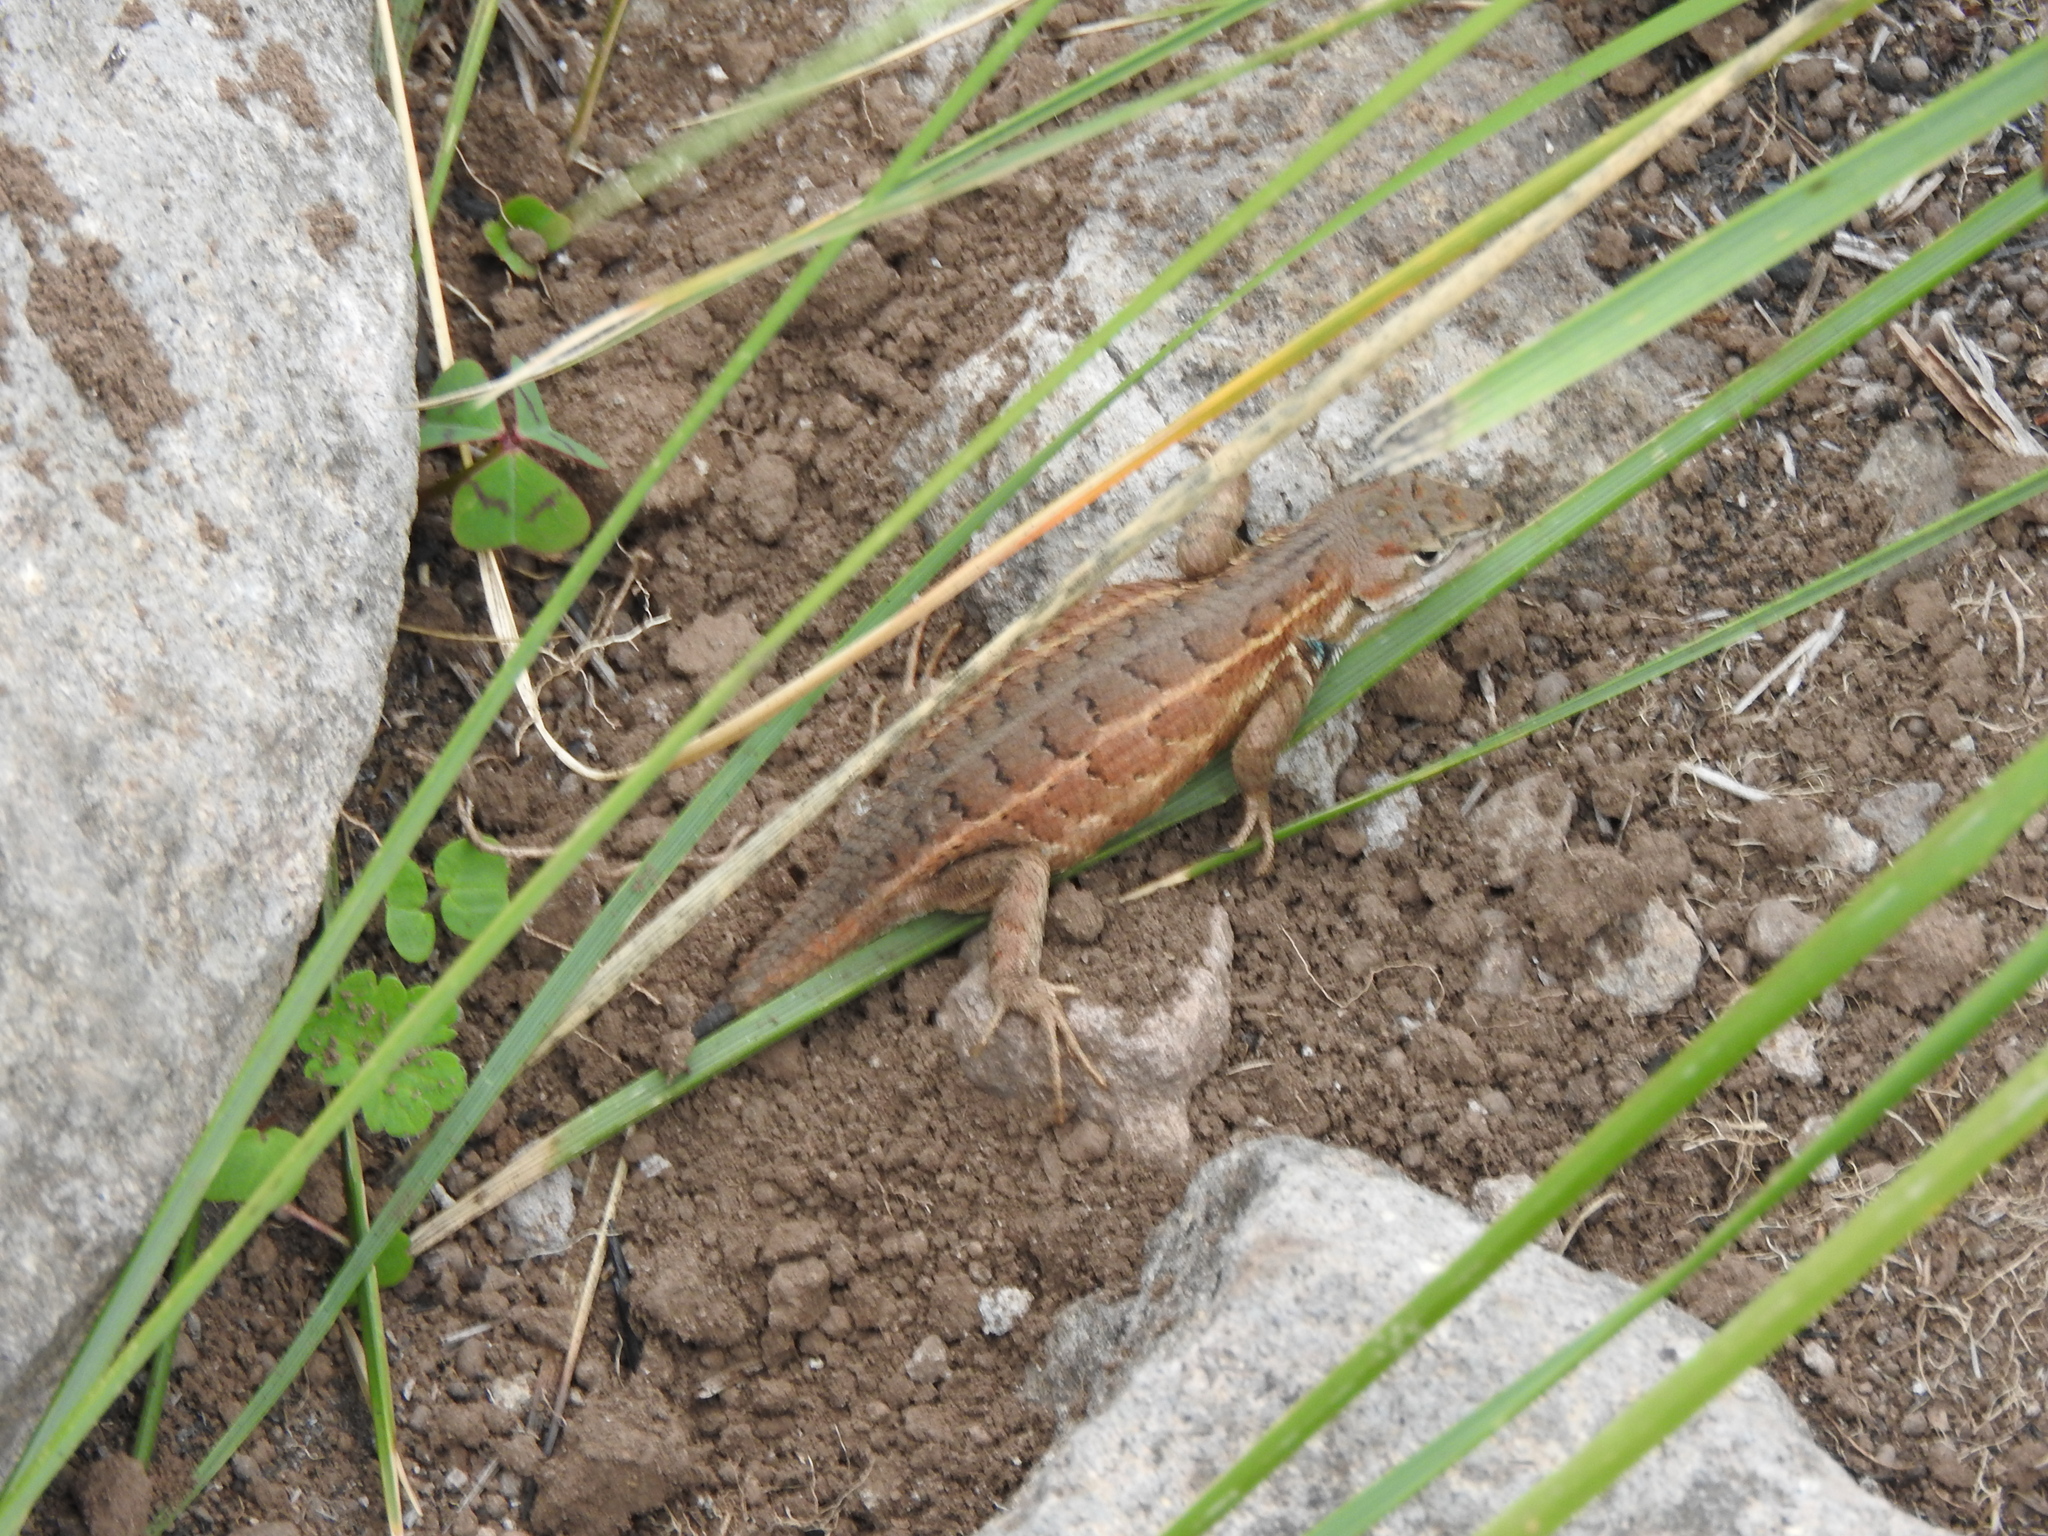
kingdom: Animalia
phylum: Chordata
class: Squamata
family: Phrynosomatidae
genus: Sceloporus
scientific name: Sceloporus aeneus
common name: Black-bellied bunchgrass lizard
